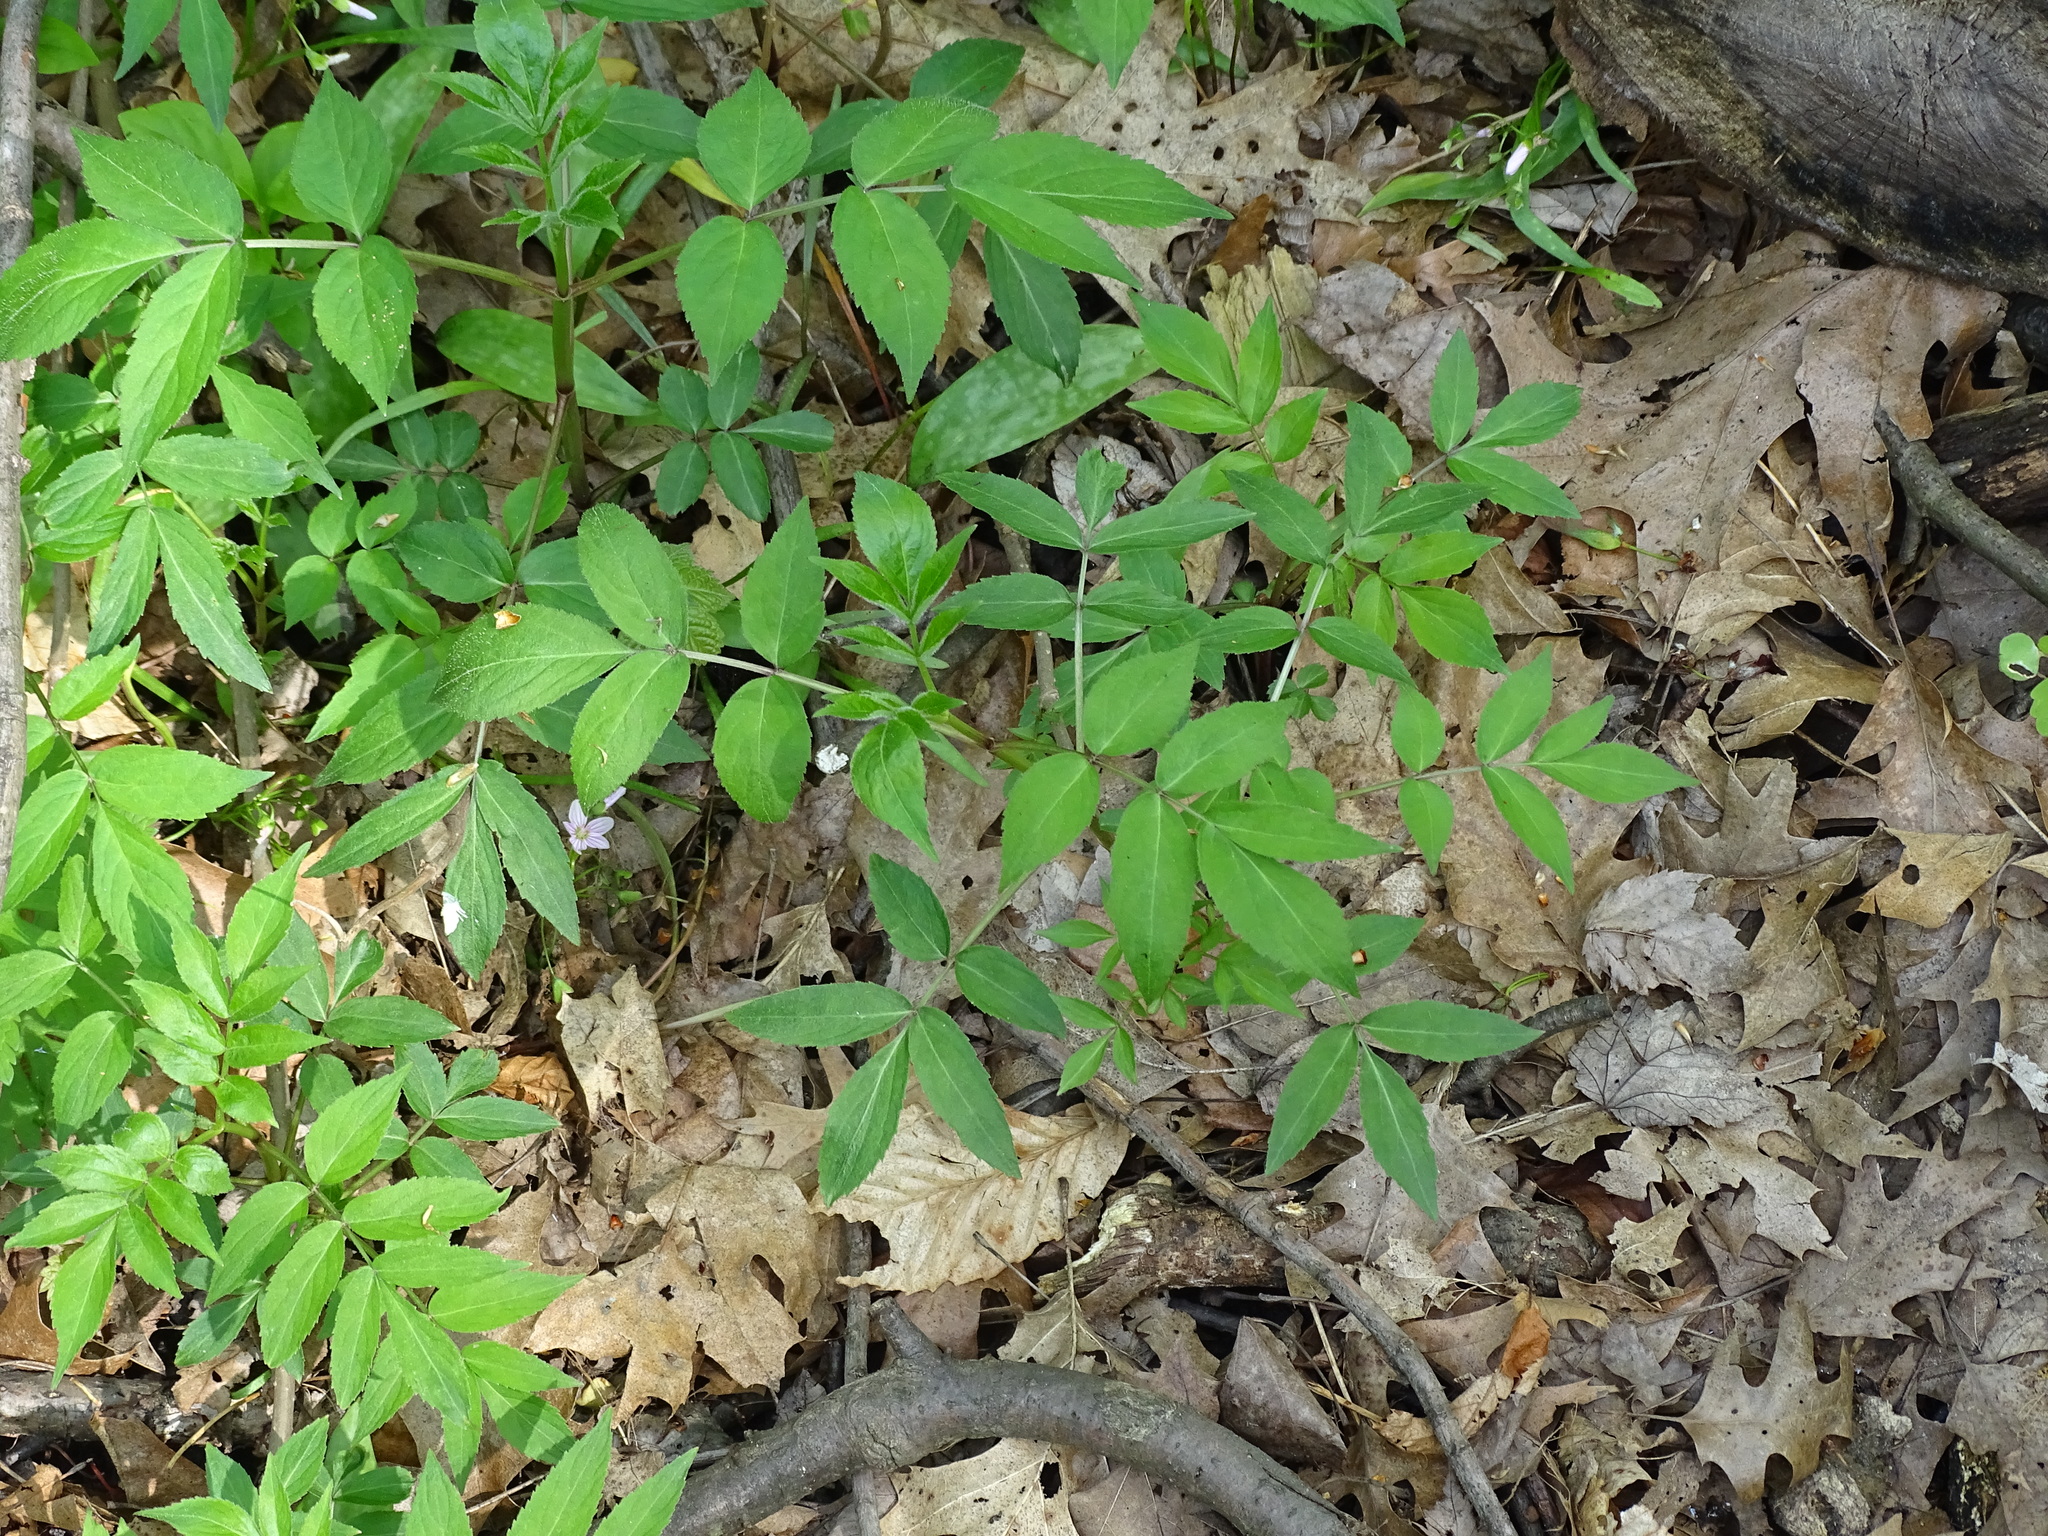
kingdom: Plantae
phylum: Tracheophyta
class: Magnoliopsida
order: Dipsacales
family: Viburnaceae
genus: Sambucus
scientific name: Sambucus
